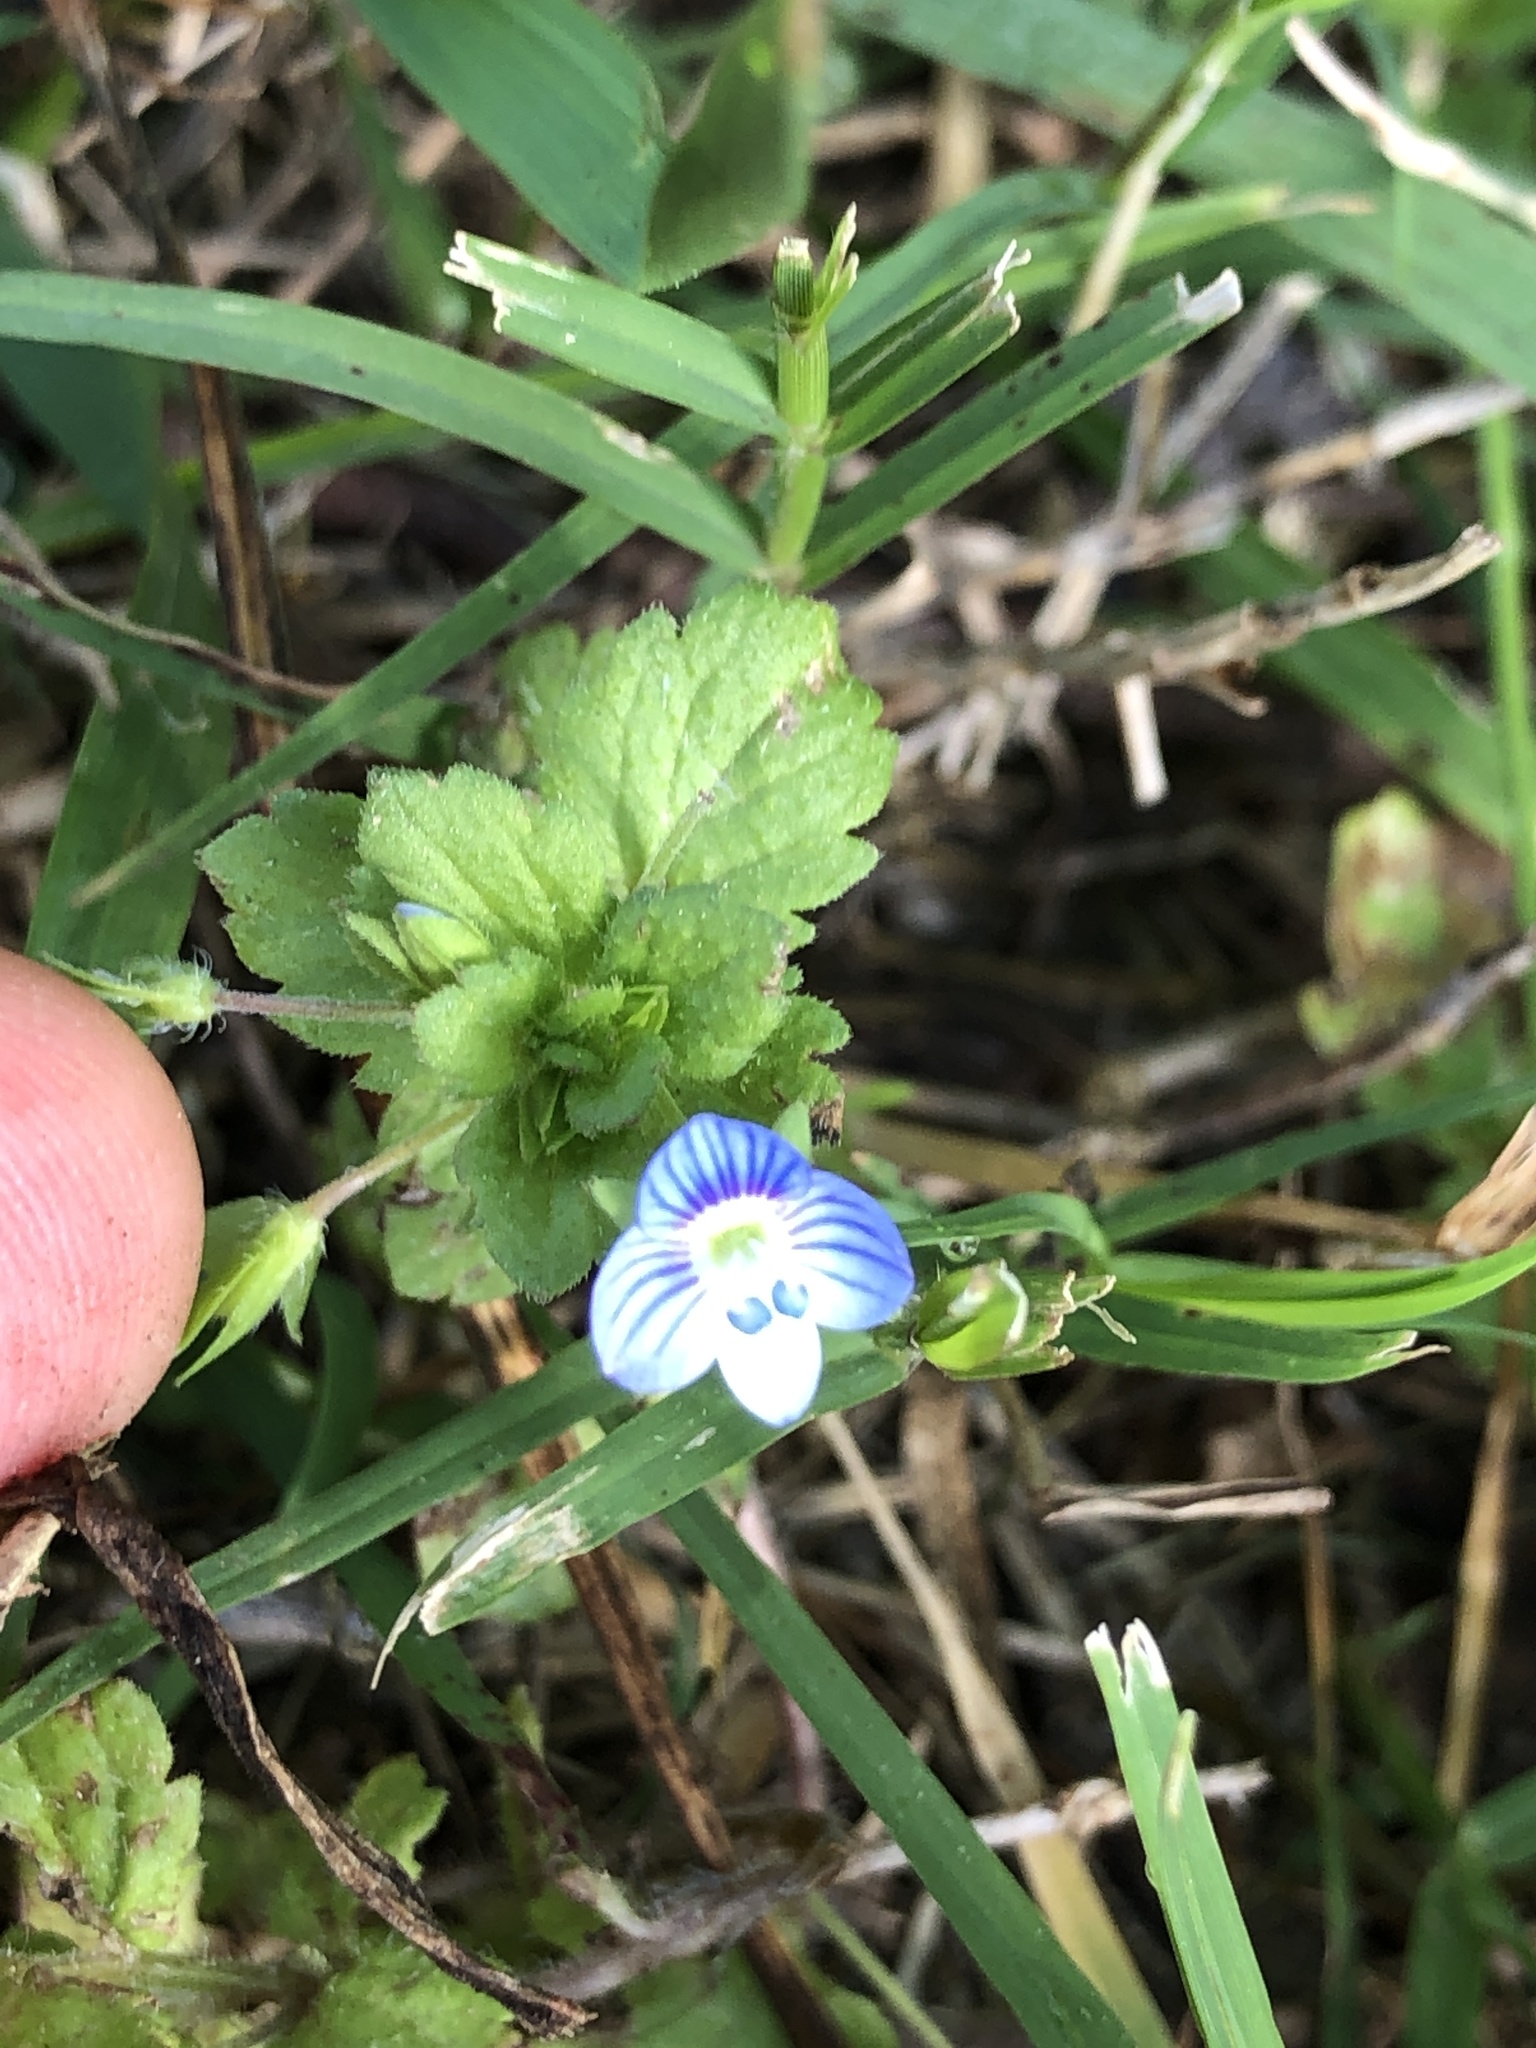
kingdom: Plantae
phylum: Tracheophyta
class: Magnoliopsida
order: Lamiales
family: Plantaginaceae
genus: Veronica
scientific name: Veronica persica
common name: Common field-speedwell
